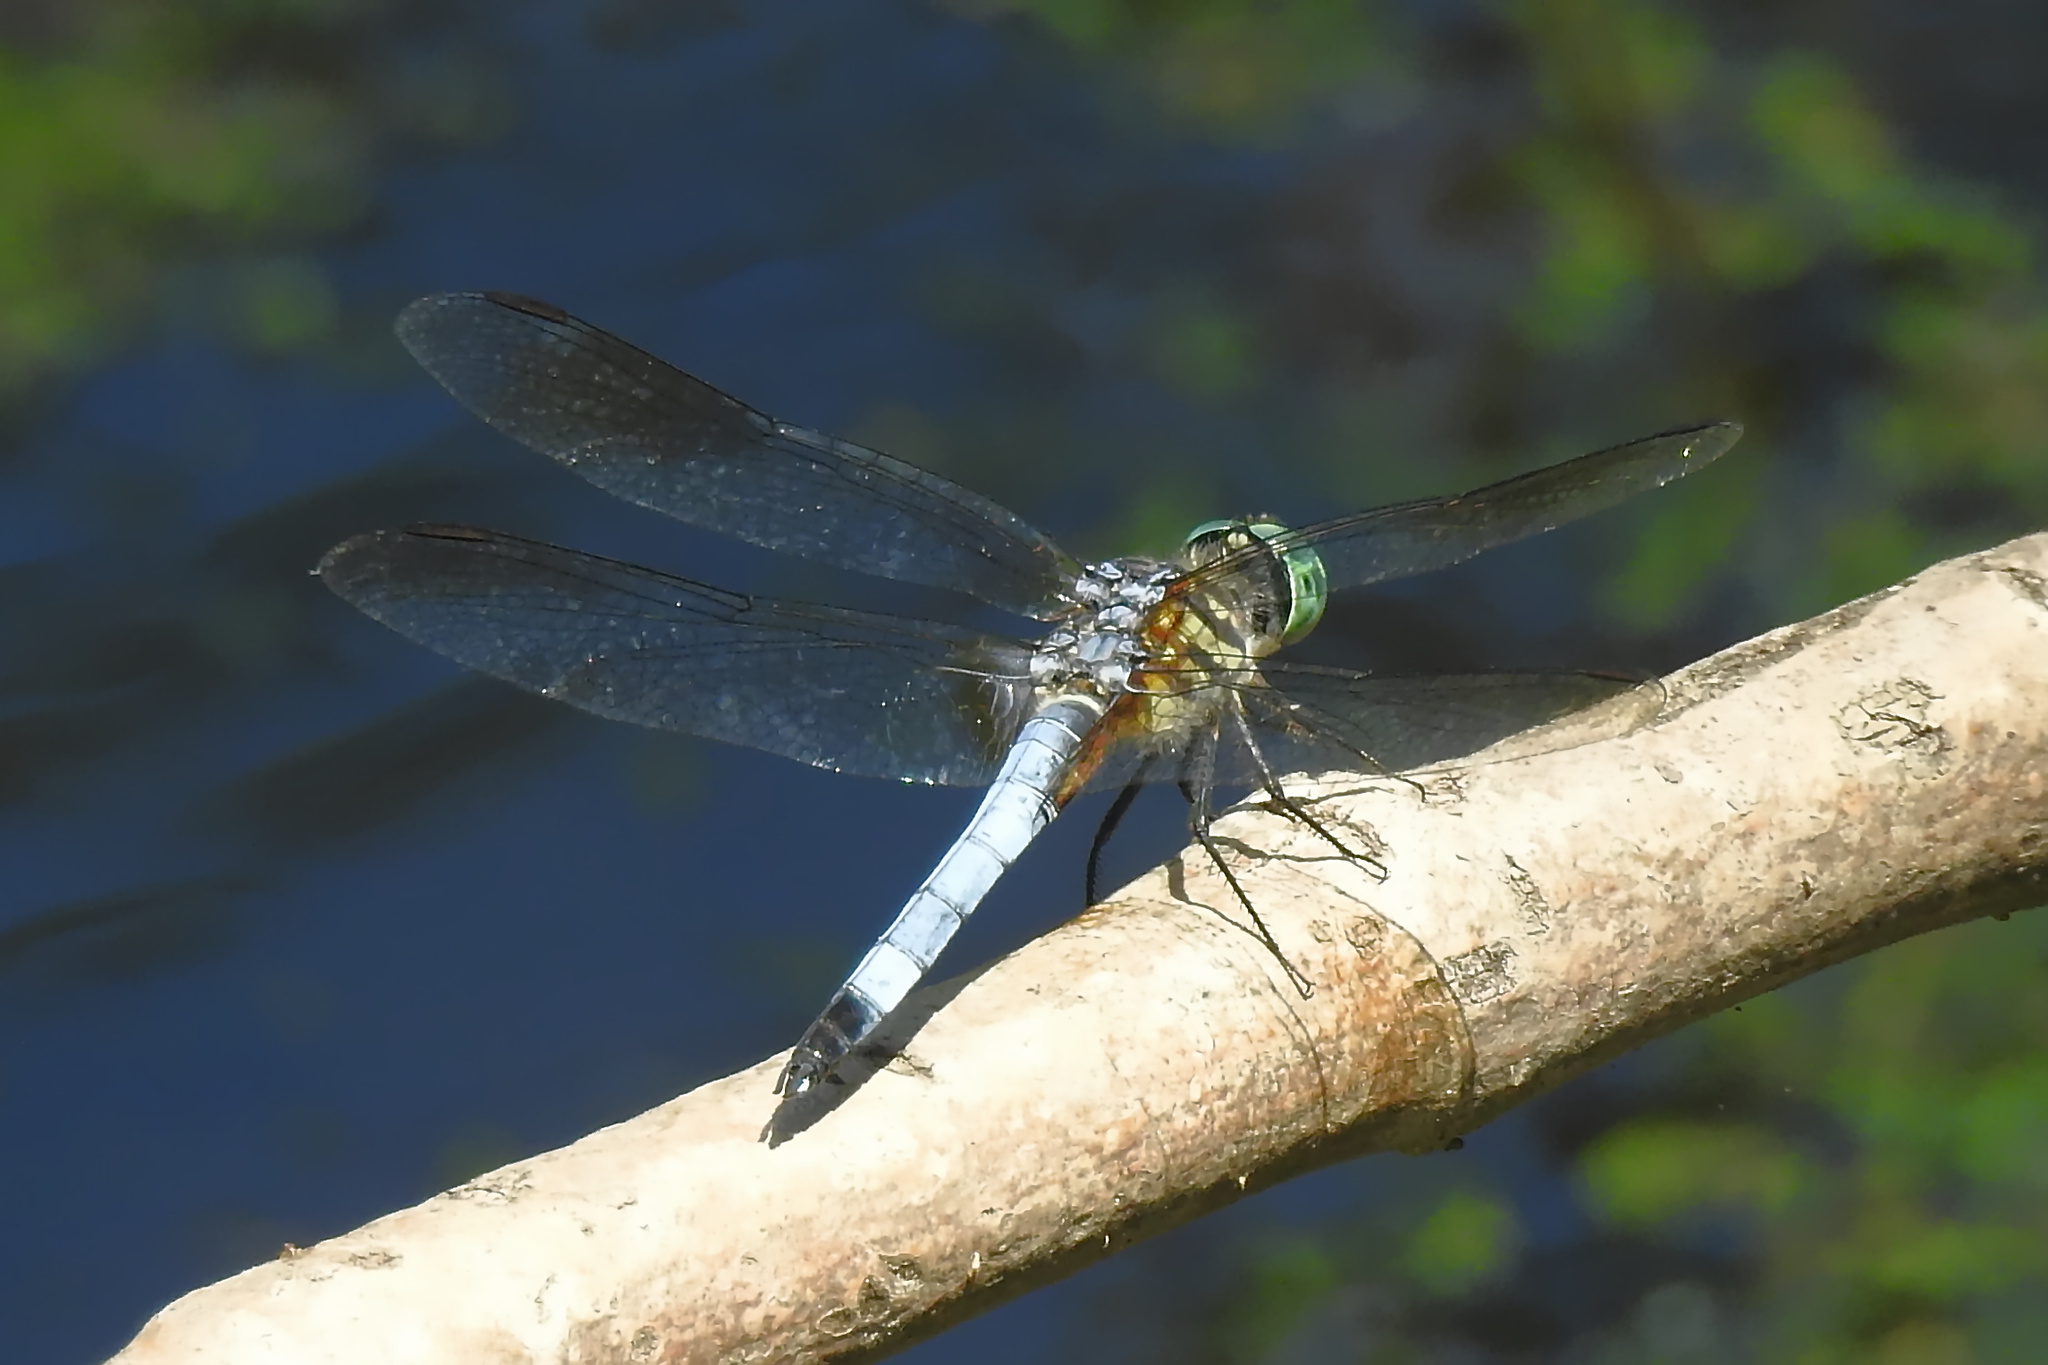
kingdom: Animalia
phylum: Arthropoda
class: Insecta
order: Odonata
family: Libellulidae
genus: Pachydiplax
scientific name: Pachydiplax longipennis
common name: Blue dasher
